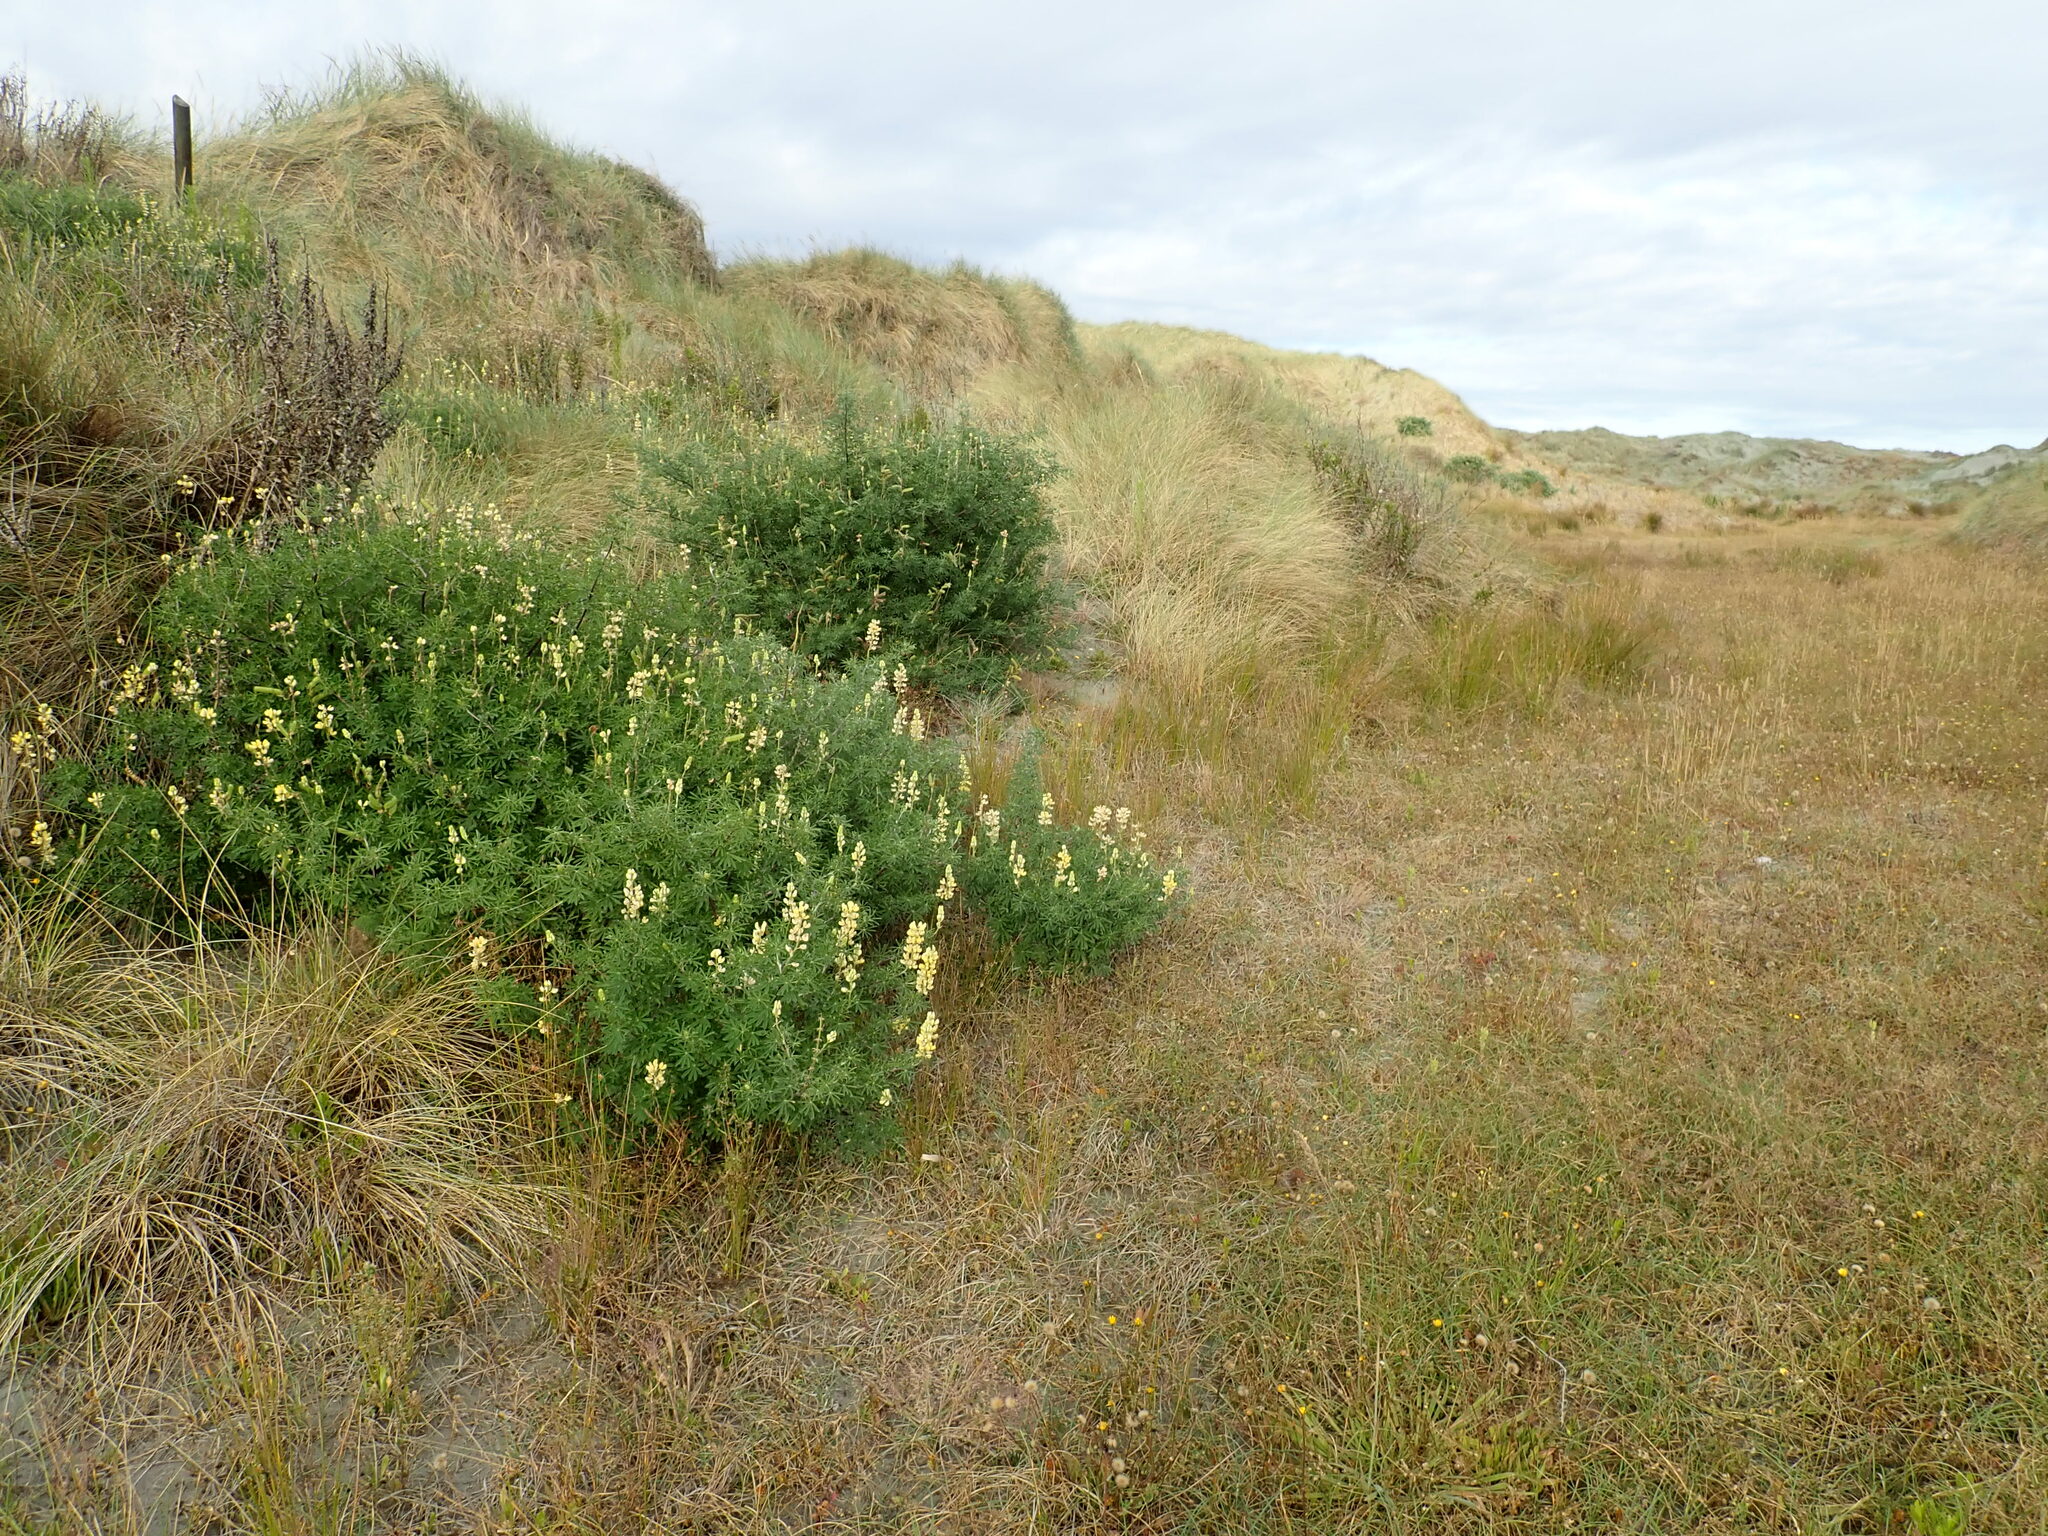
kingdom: Plantae
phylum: Tracheophyta
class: Magnoliopsida
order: Fabales
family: Fabaceae
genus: Lupinus
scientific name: Lupinus arboreus
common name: Yellow bush lupine
